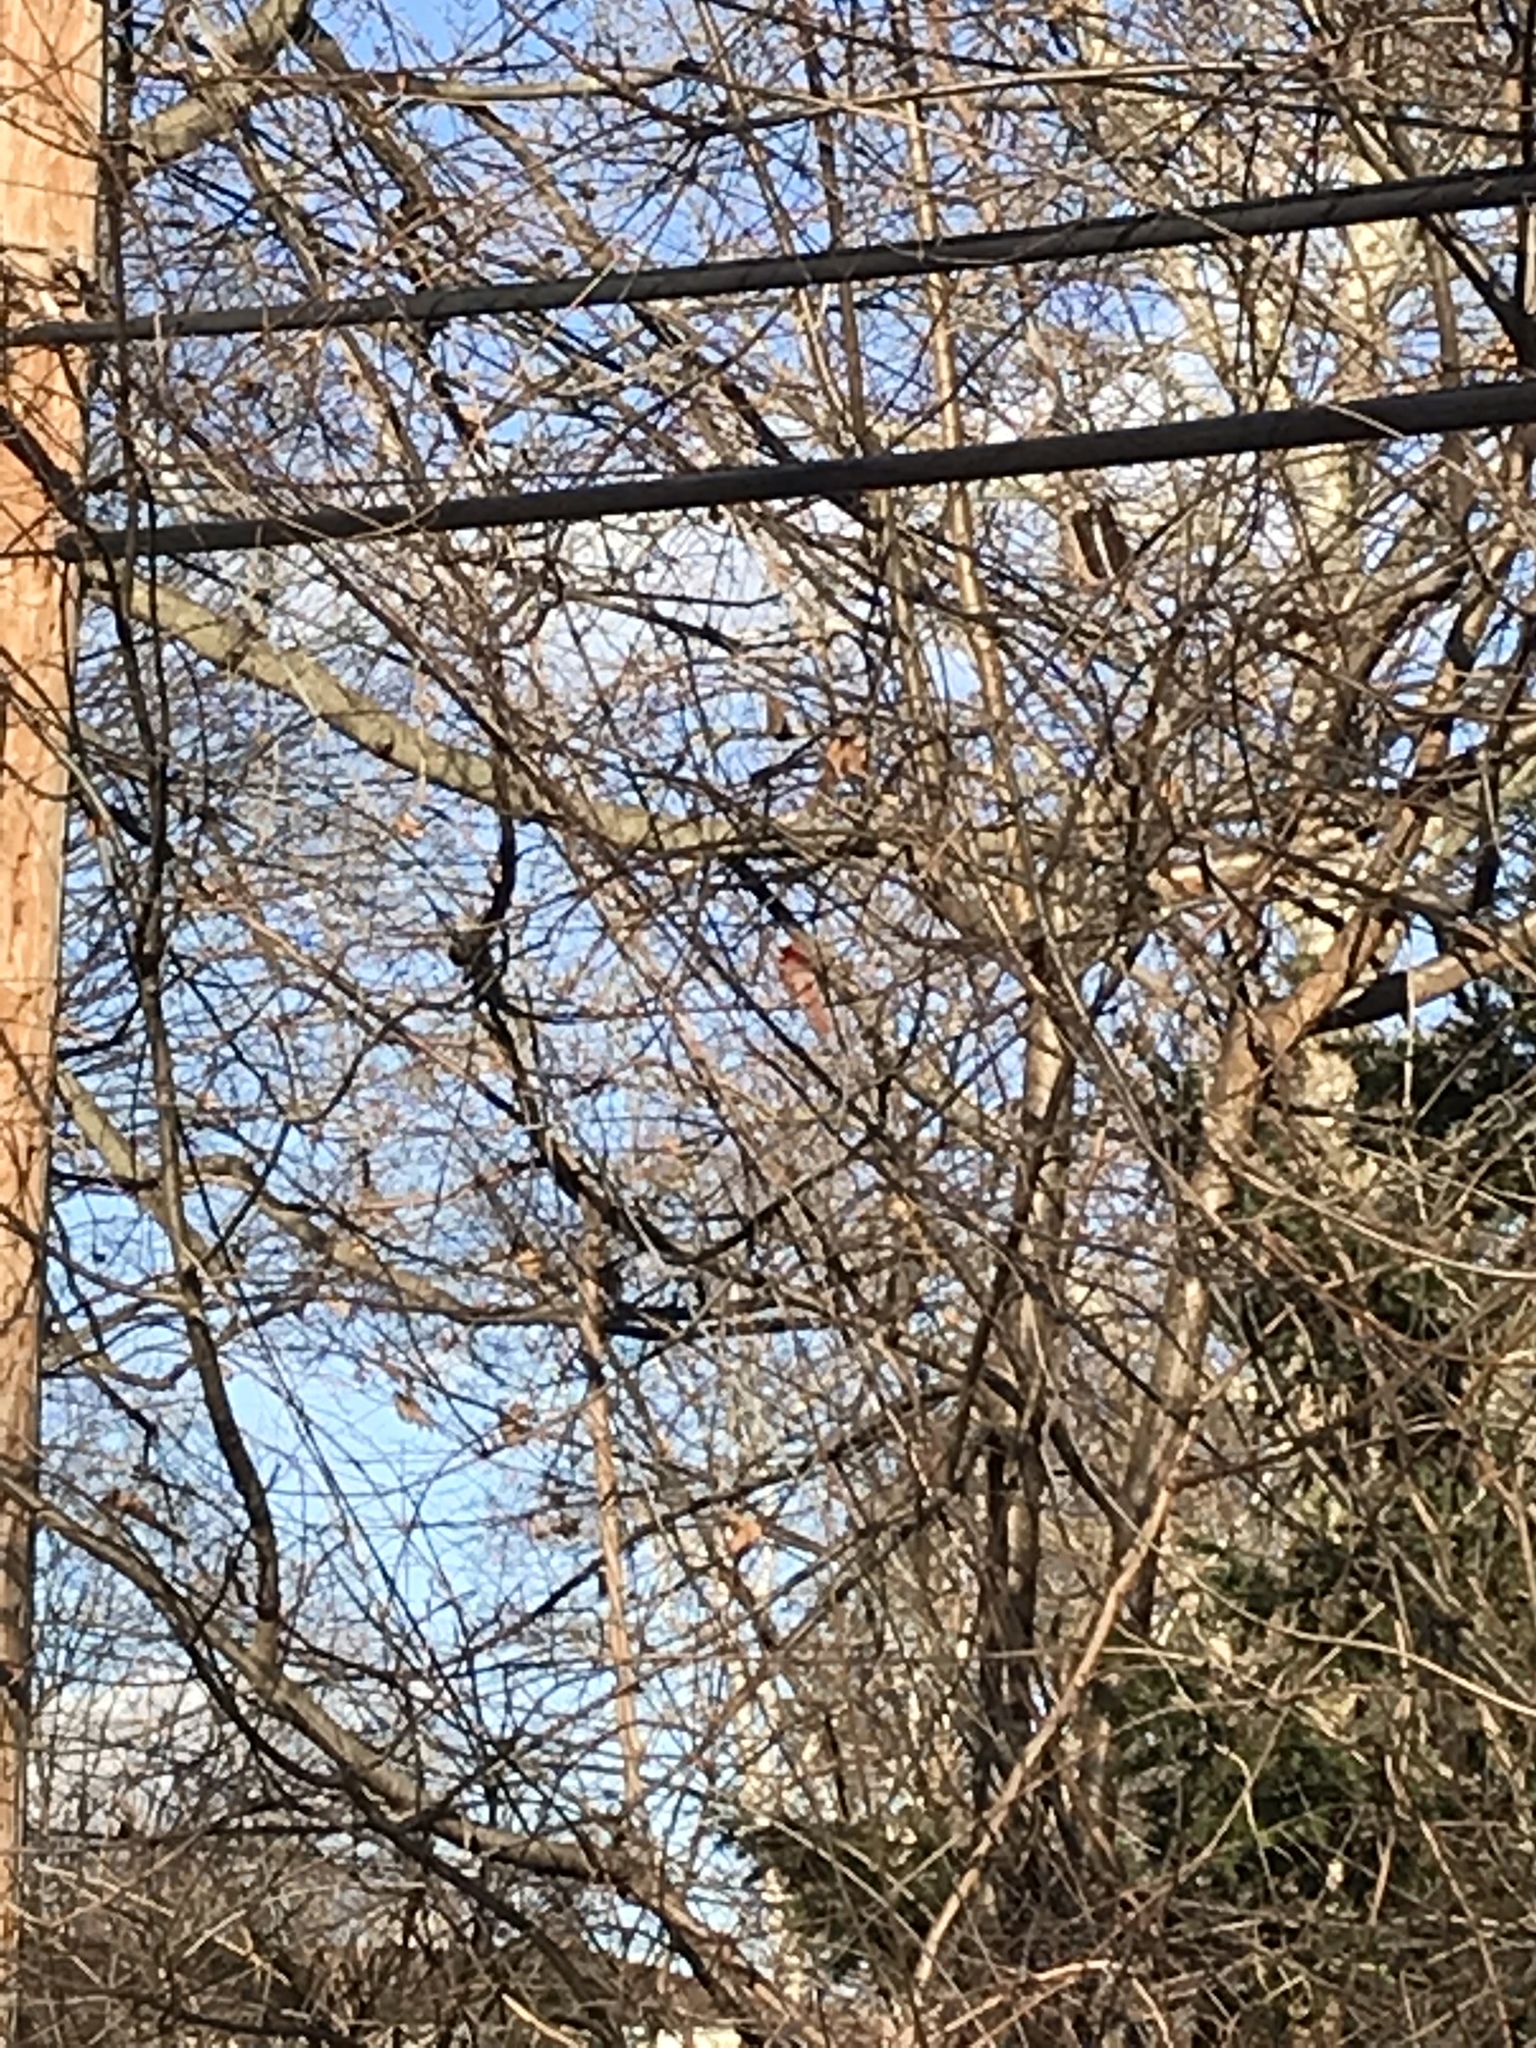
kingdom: Animalia
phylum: Chordata
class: Aves
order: Passeriformes
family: Cardinalidae
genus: Cardinalis
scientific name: Cardinalis cardinalis
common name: Northern cardinal
